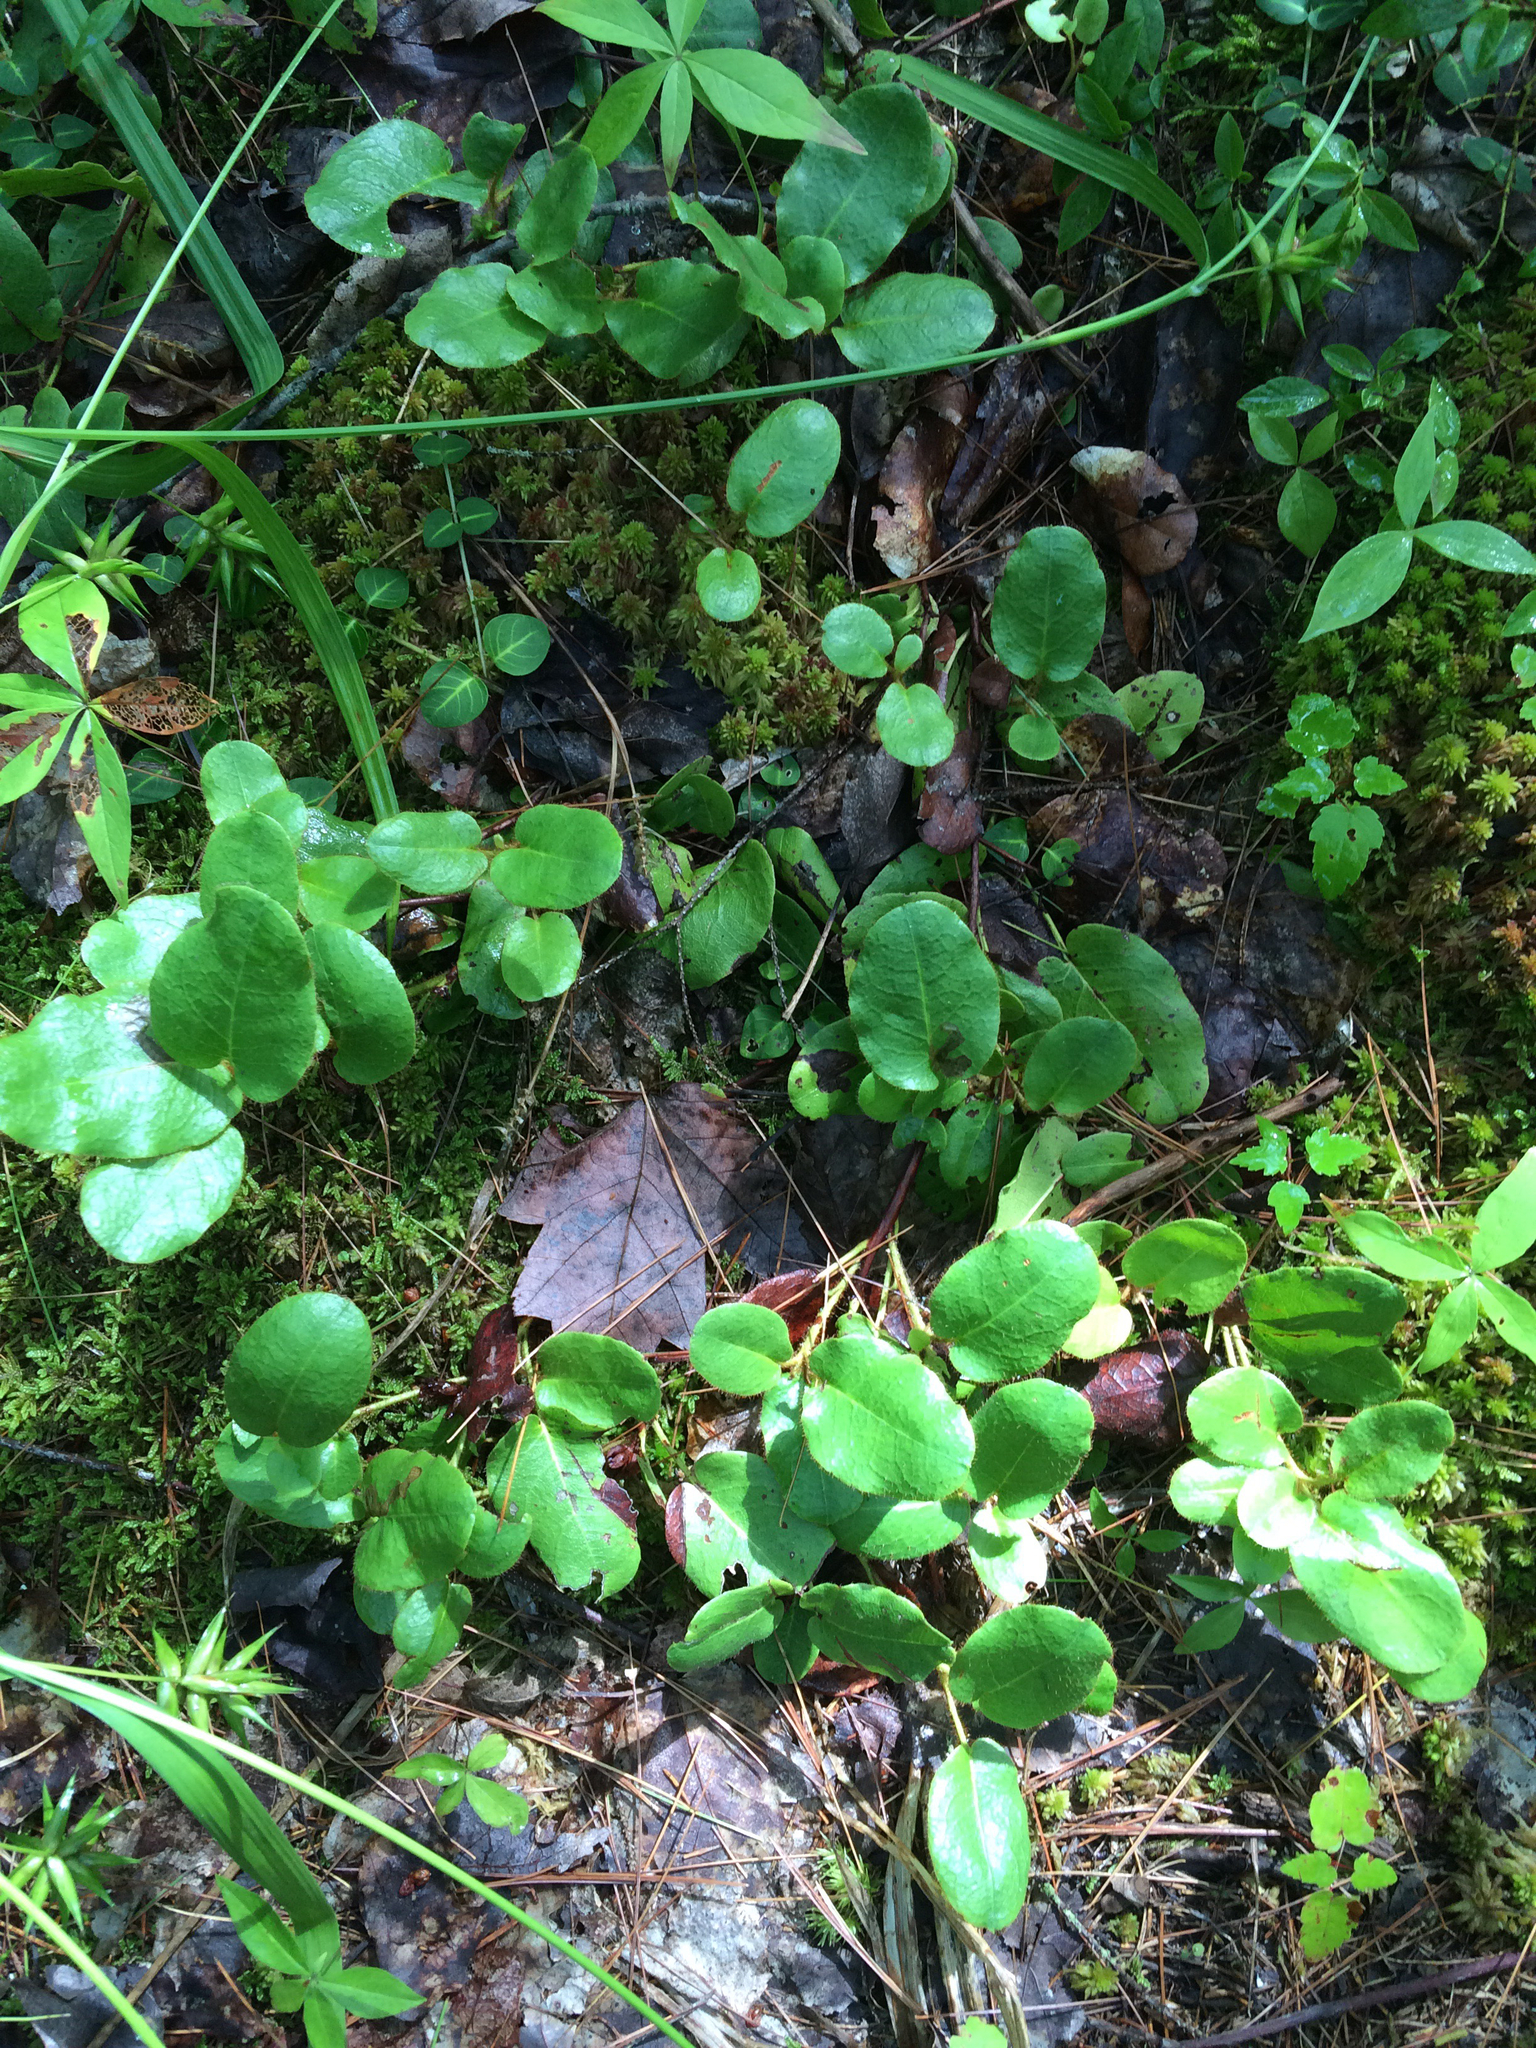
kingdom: Plantae
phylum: Tracheophyta
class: Magnoliopsida
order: Ericales
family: Ericaceae
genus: Epigaea
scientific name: Epigaea repens
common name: Gravelroot
